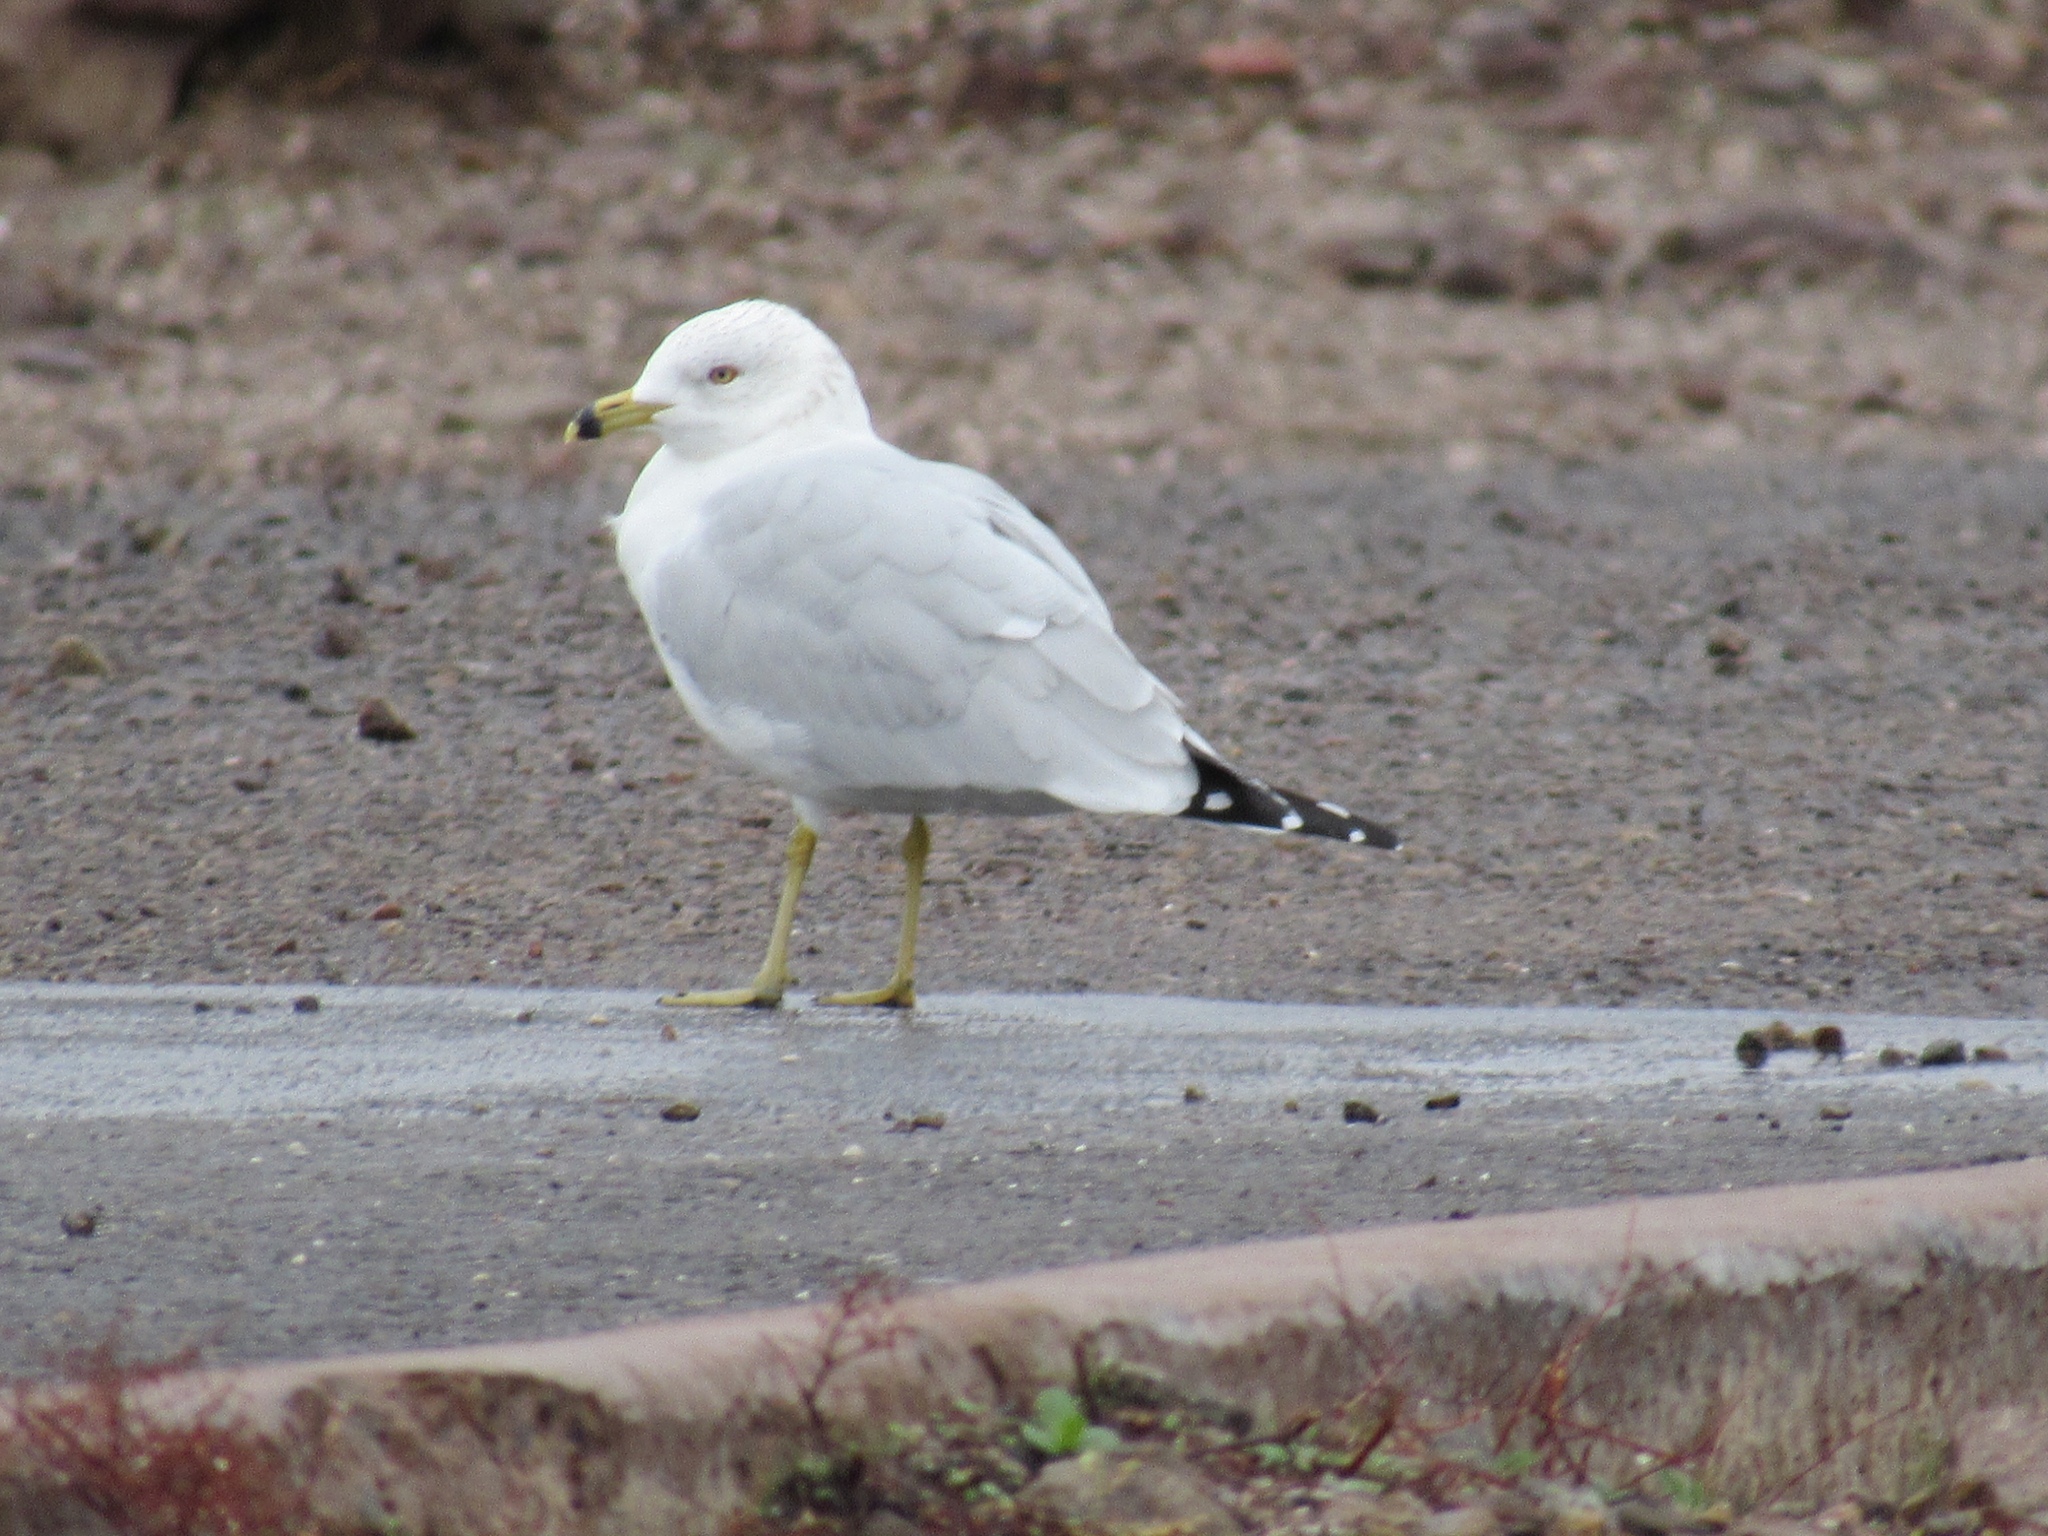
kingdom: Animalia
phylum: Chordata
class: Aves
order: Charadriiformes
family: Laridae
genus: Larus
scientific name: Larus delawarensis
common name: Ring-billed gull
